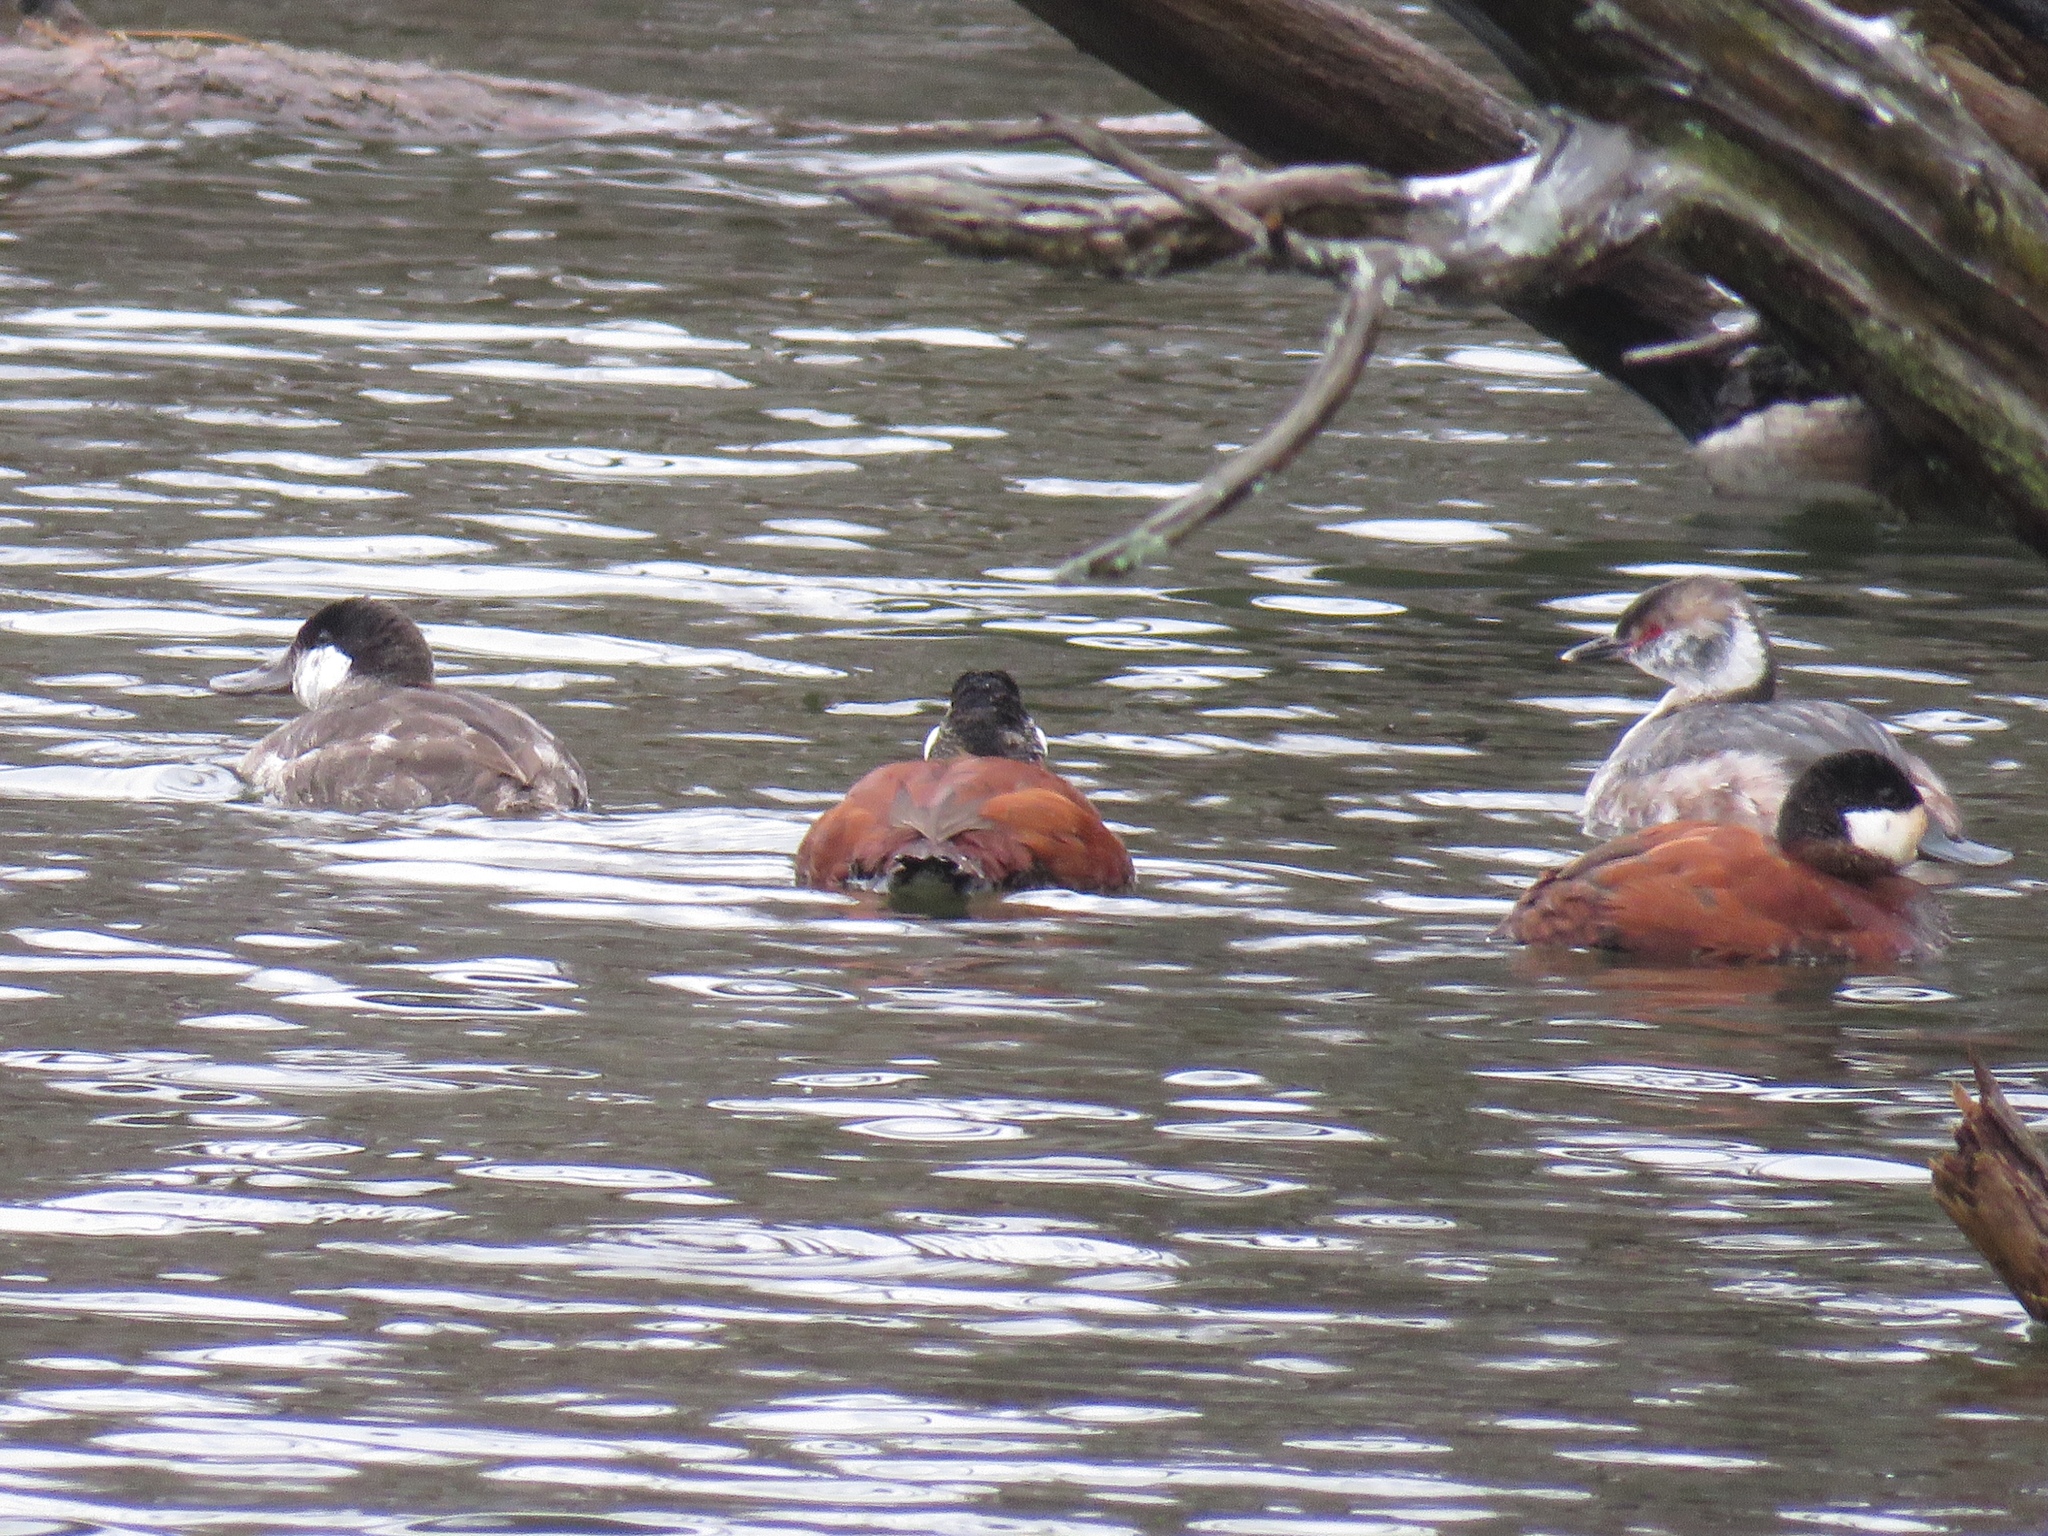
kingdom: Animalia
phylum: Chordata
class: Aves
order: Podicipediformes
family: Podicipedidae
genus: Podiceps
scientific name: Podiceps auritus
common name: Horned grebe
